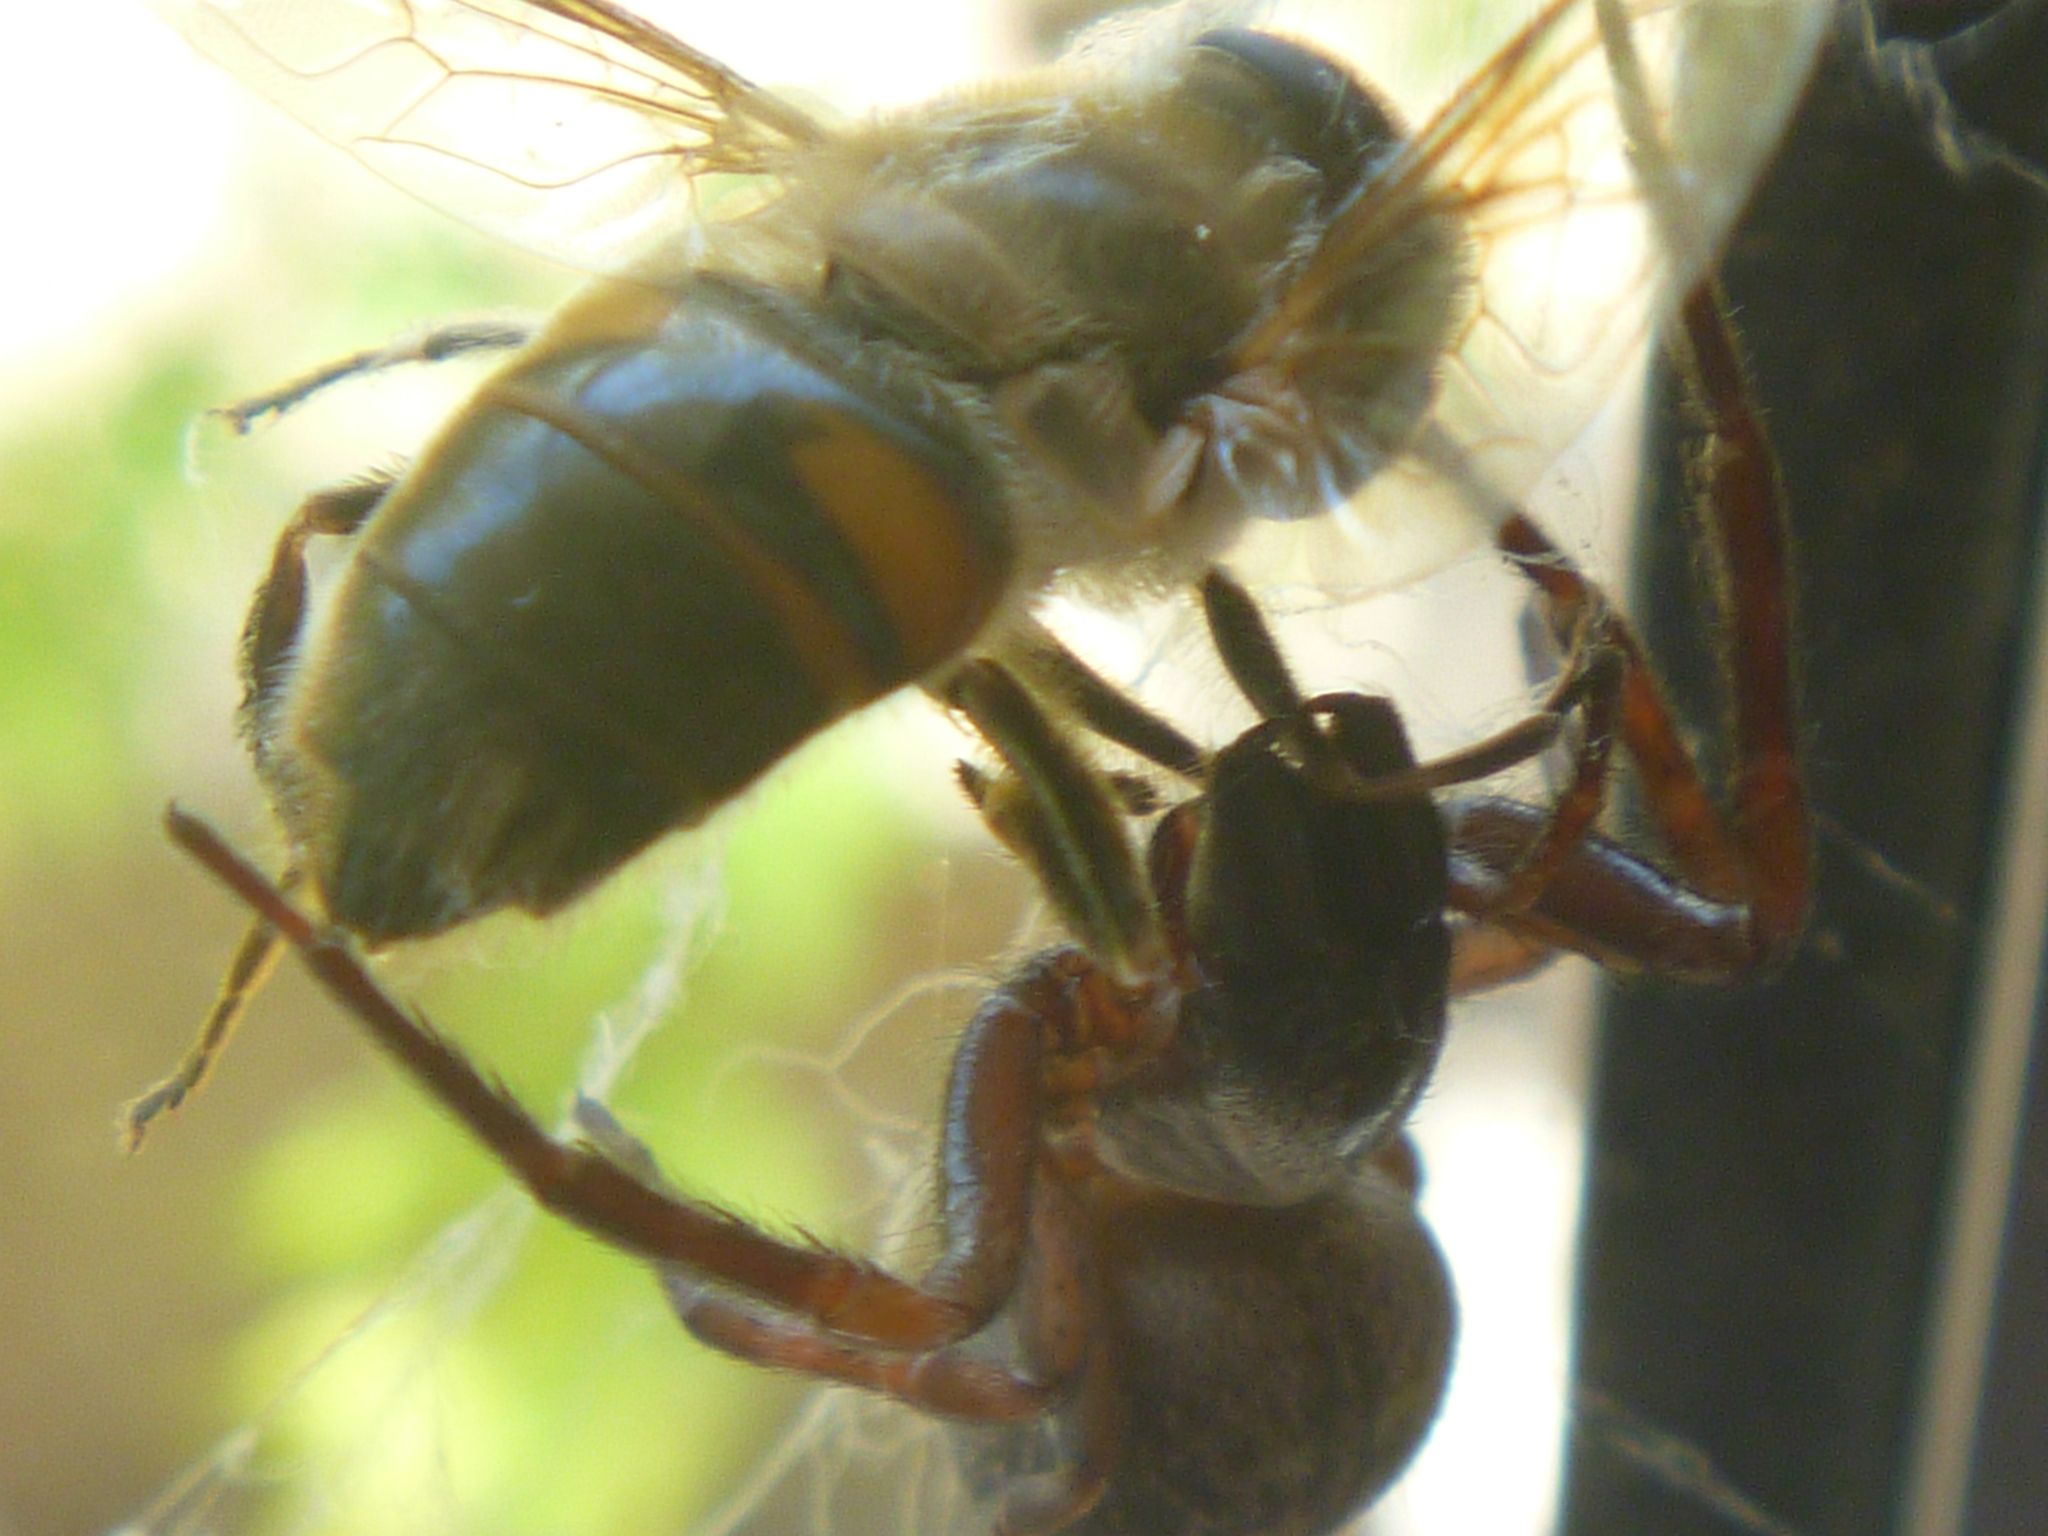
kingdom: Animalia
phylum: Arthropoda
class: Arachnida
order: Araneae
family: Desidae
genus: Badumna
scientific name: Badumna longinqua
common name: Gray house spider
